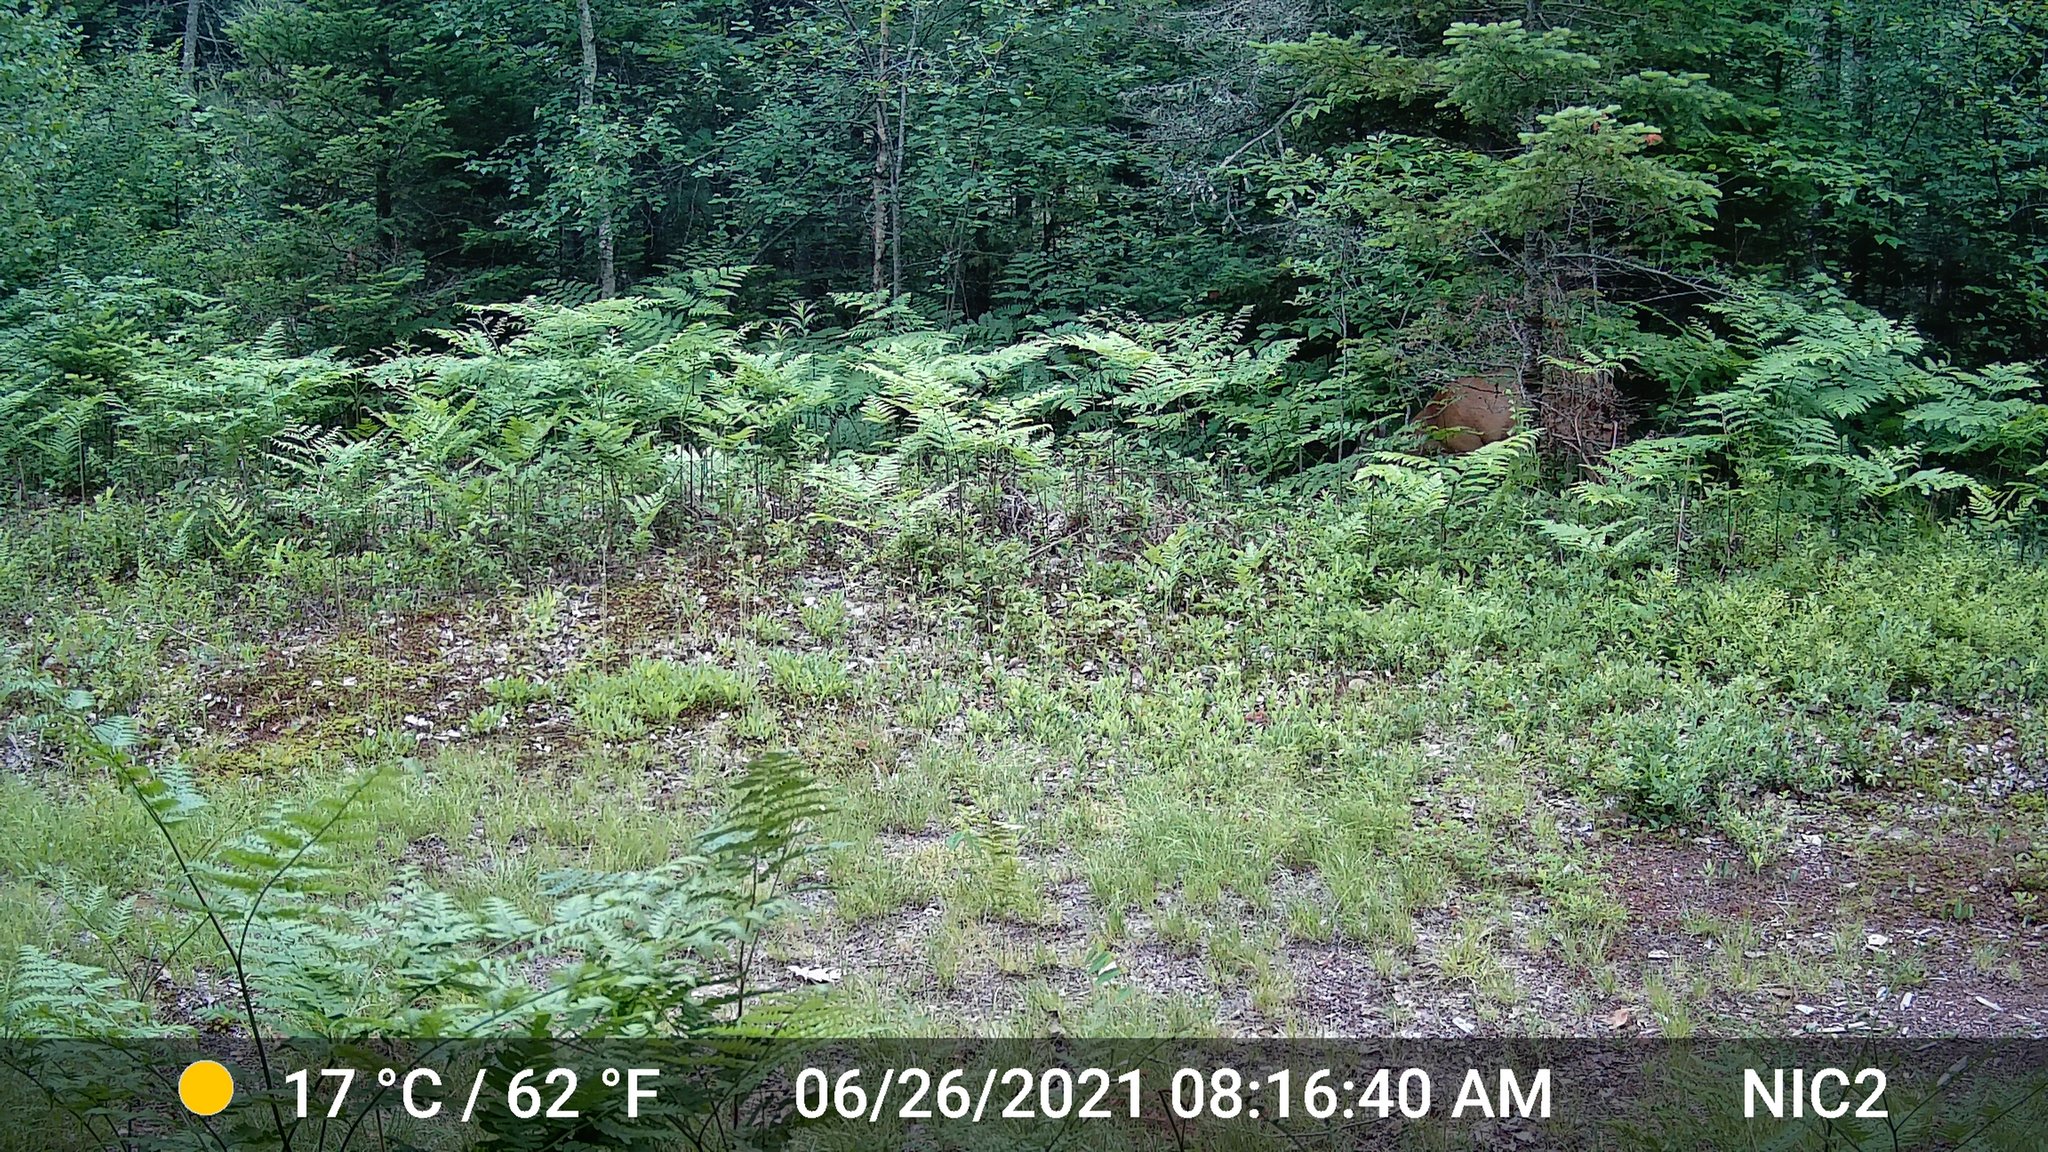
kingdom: Animalia
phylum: Chordata
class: Mammalia
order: Artiodactyla
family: Cervidae
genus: Odocoileus
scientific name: Odocoileus virginianus
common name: White-tailed deer
